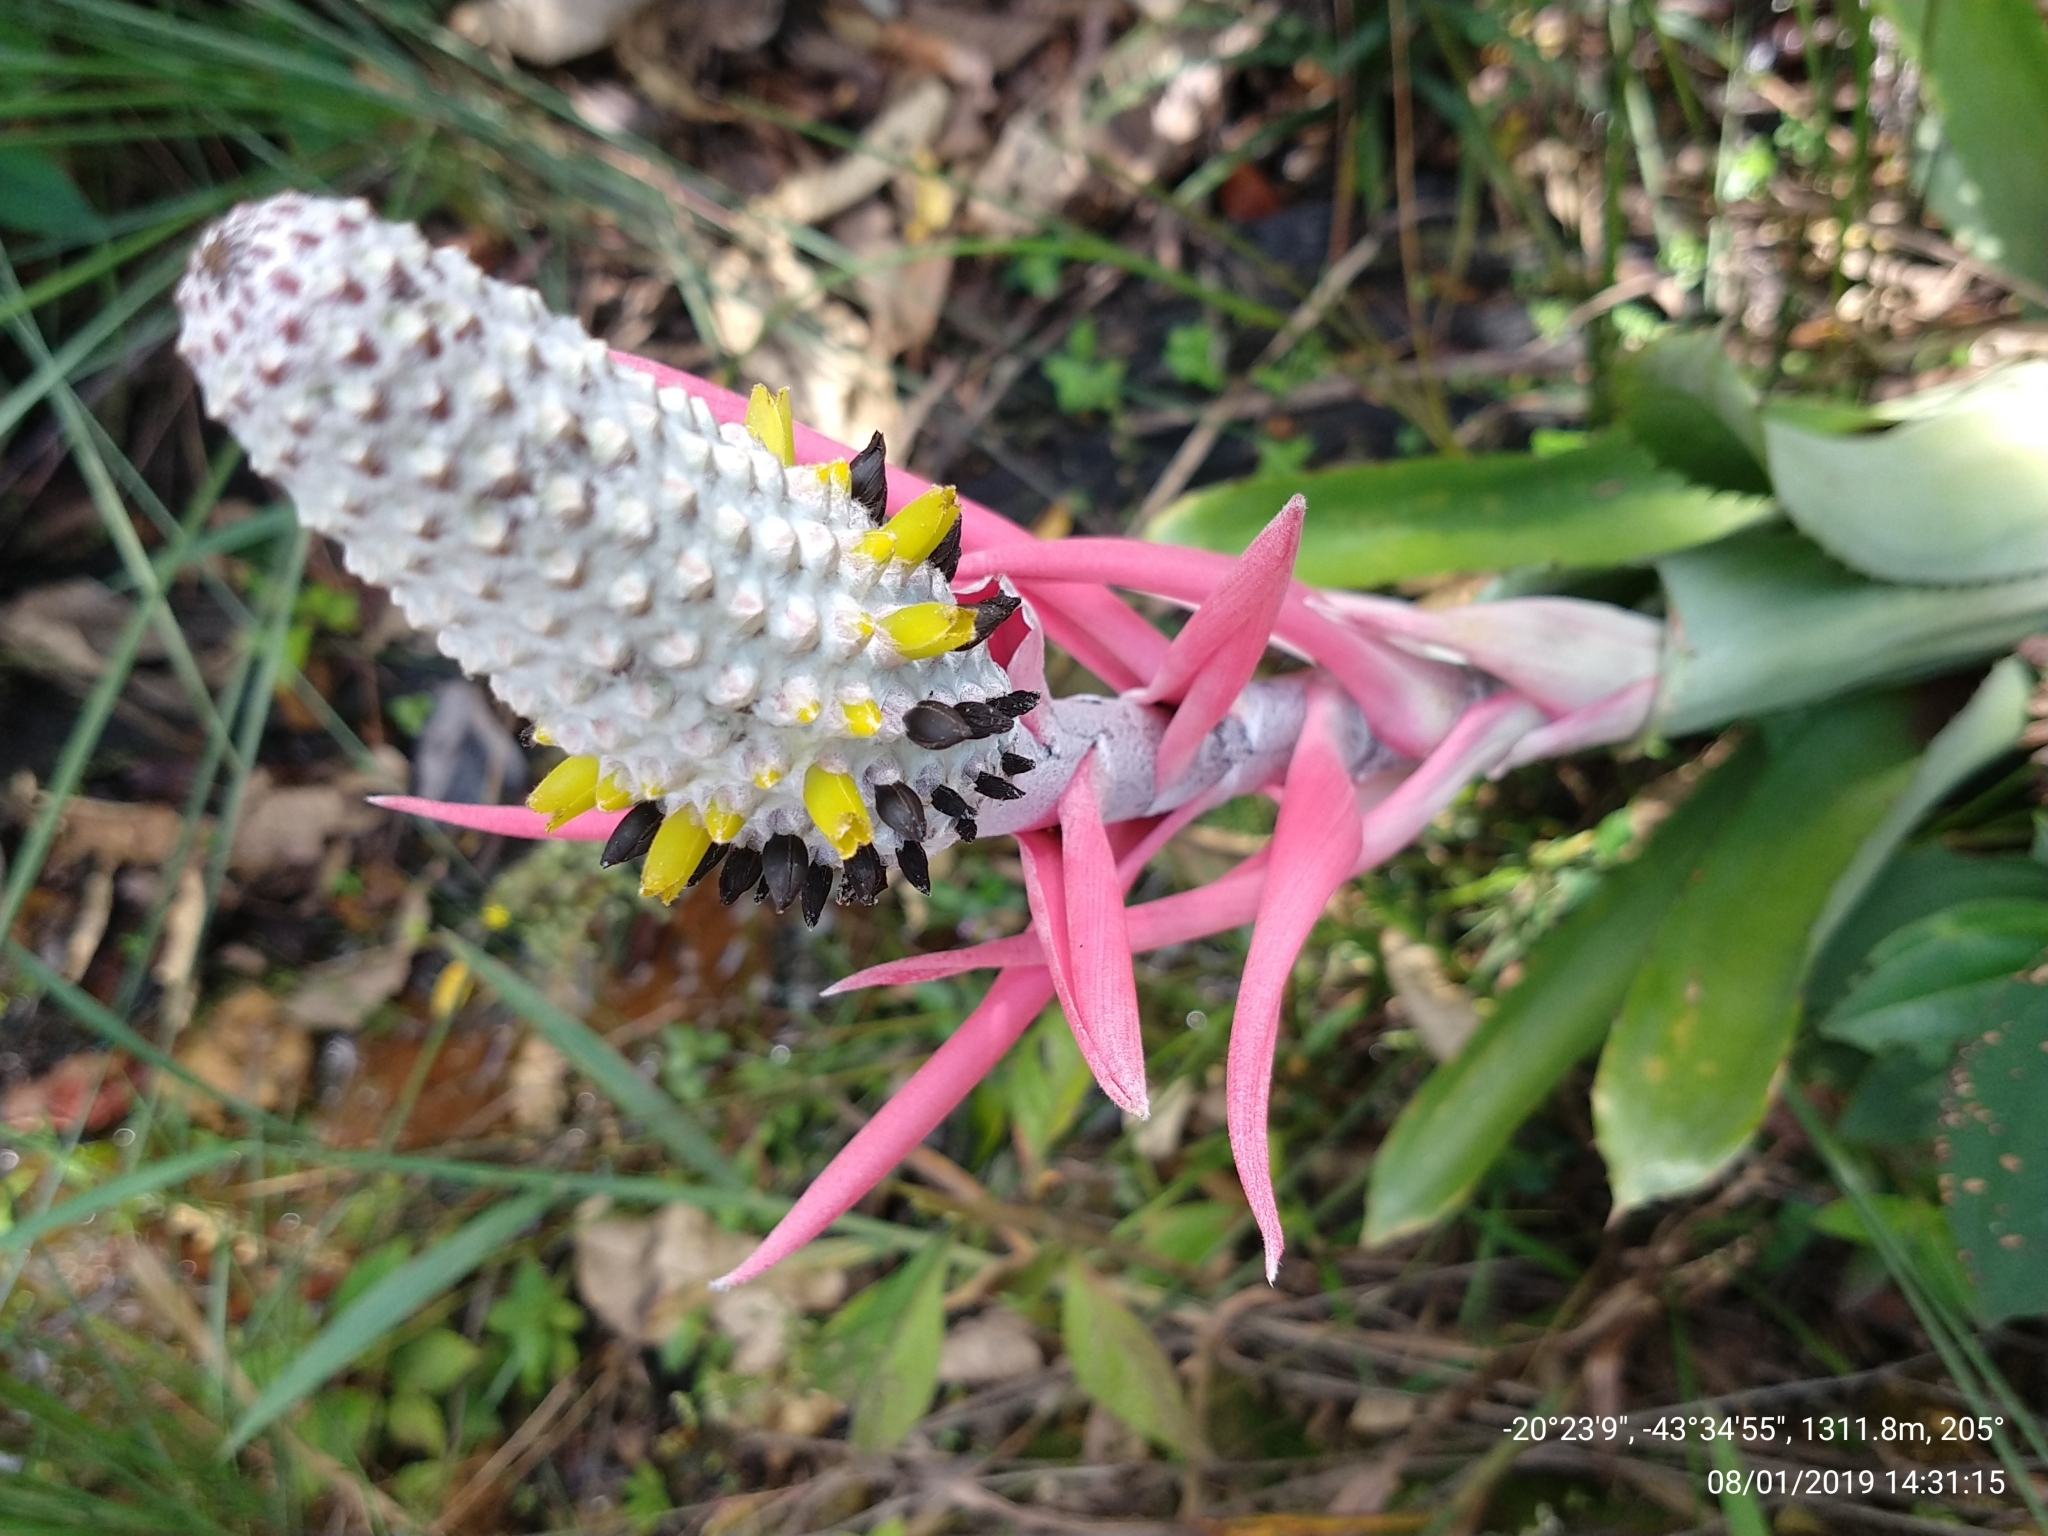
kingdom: Plantae
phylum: Tracheophyta
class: Liliopsida
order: Poales
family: Bromeliaceae
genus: Aechmea
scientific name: Aechmea bromeliifolia
